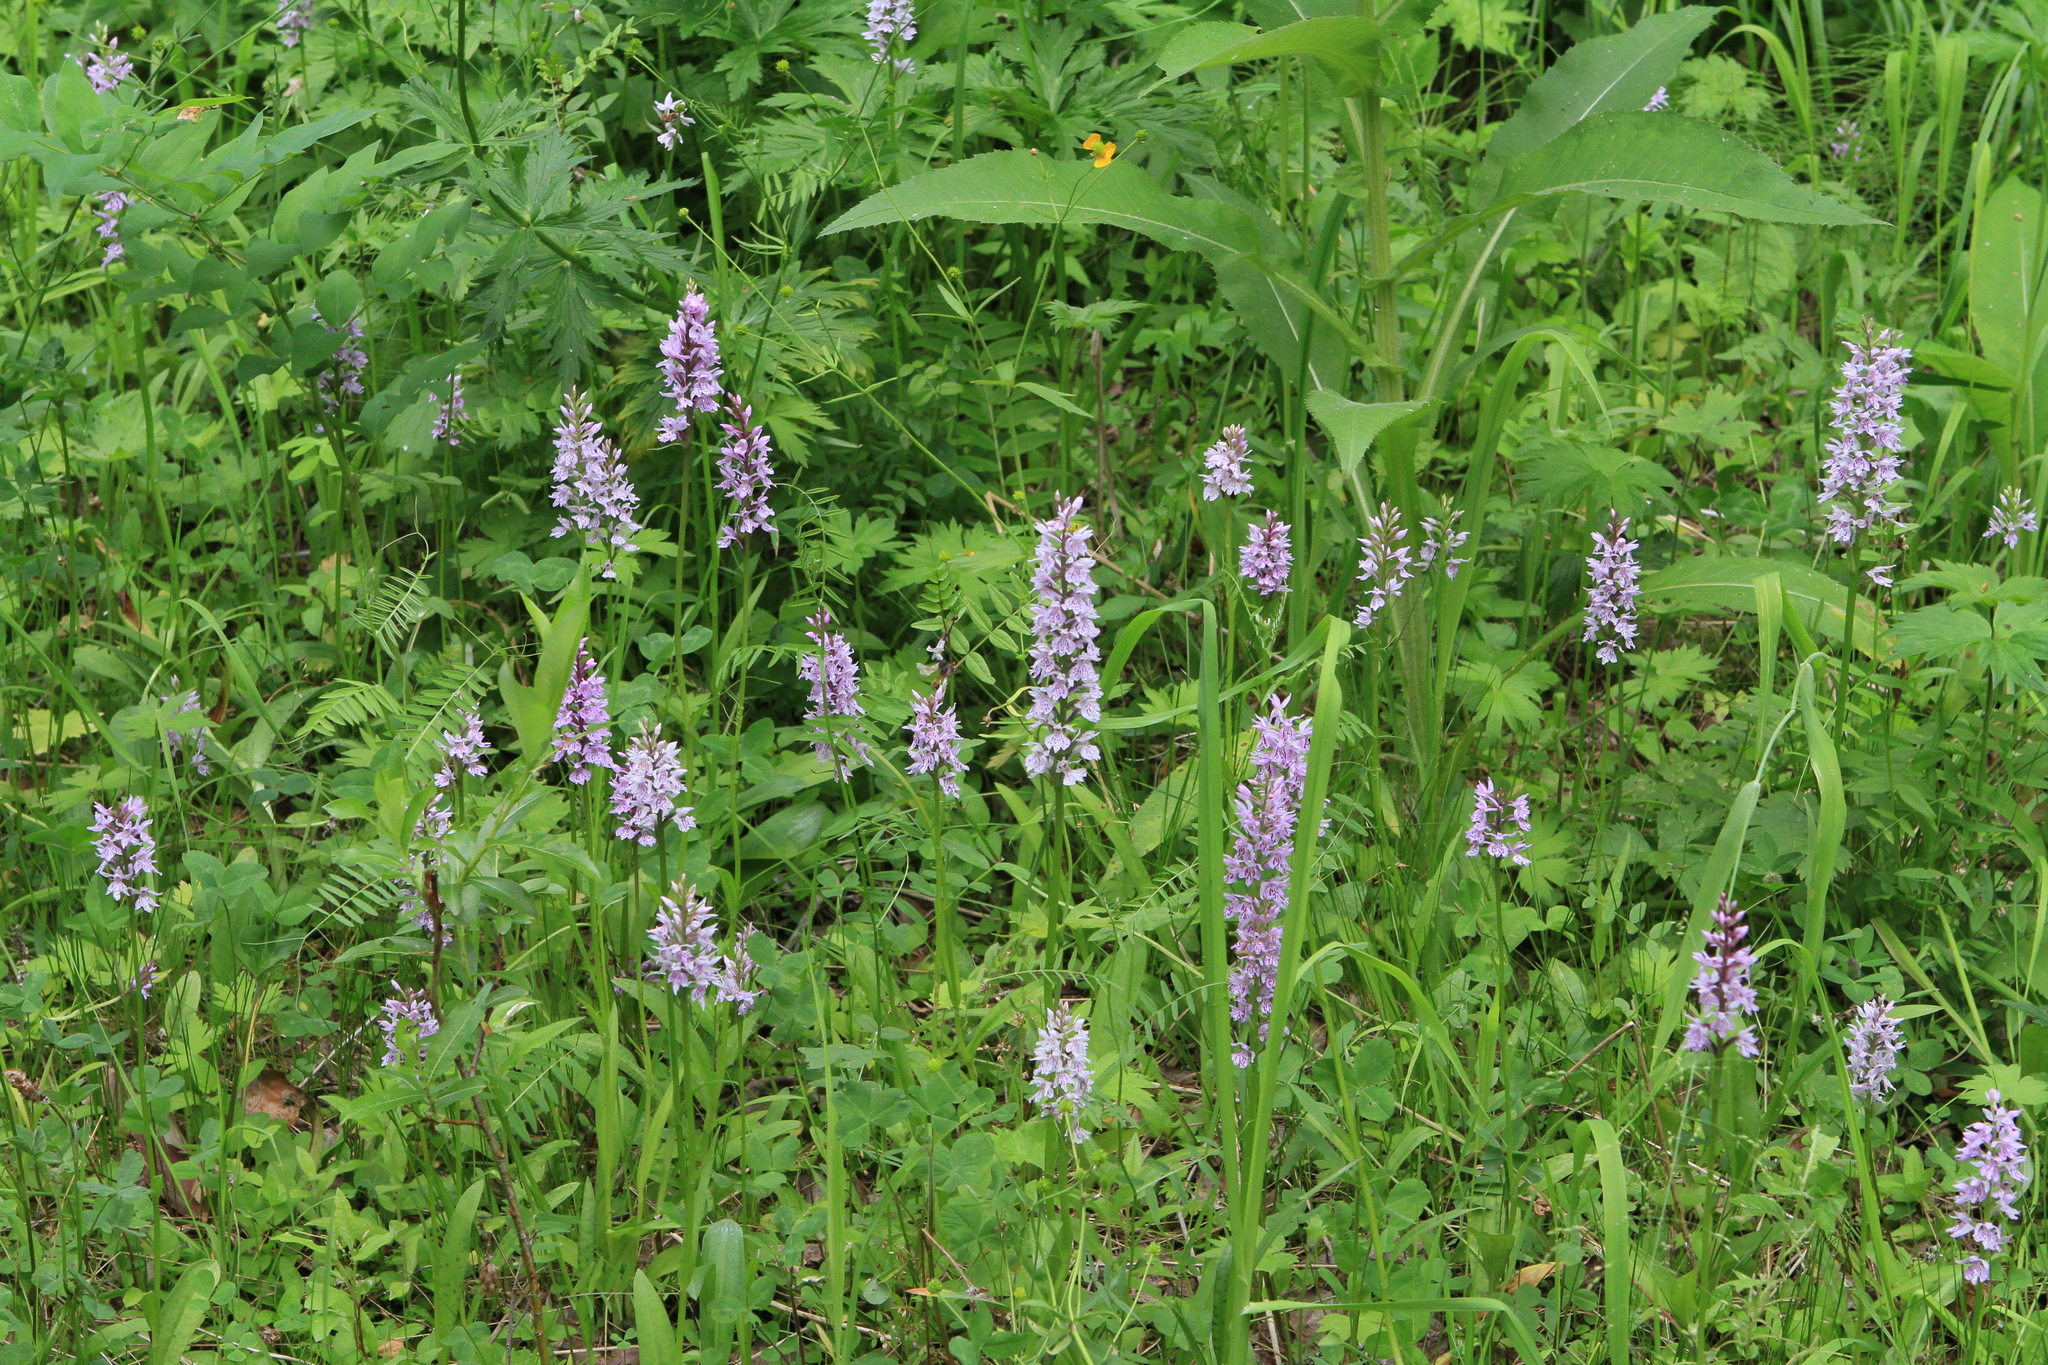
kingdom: Plantae
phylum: Tracheophyta
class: Liliopsida
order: Asparagales
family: Orchidaceae
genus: Dactylorhiza
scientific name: Dactylorhiza maculata
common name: Heath spotted-orchid
